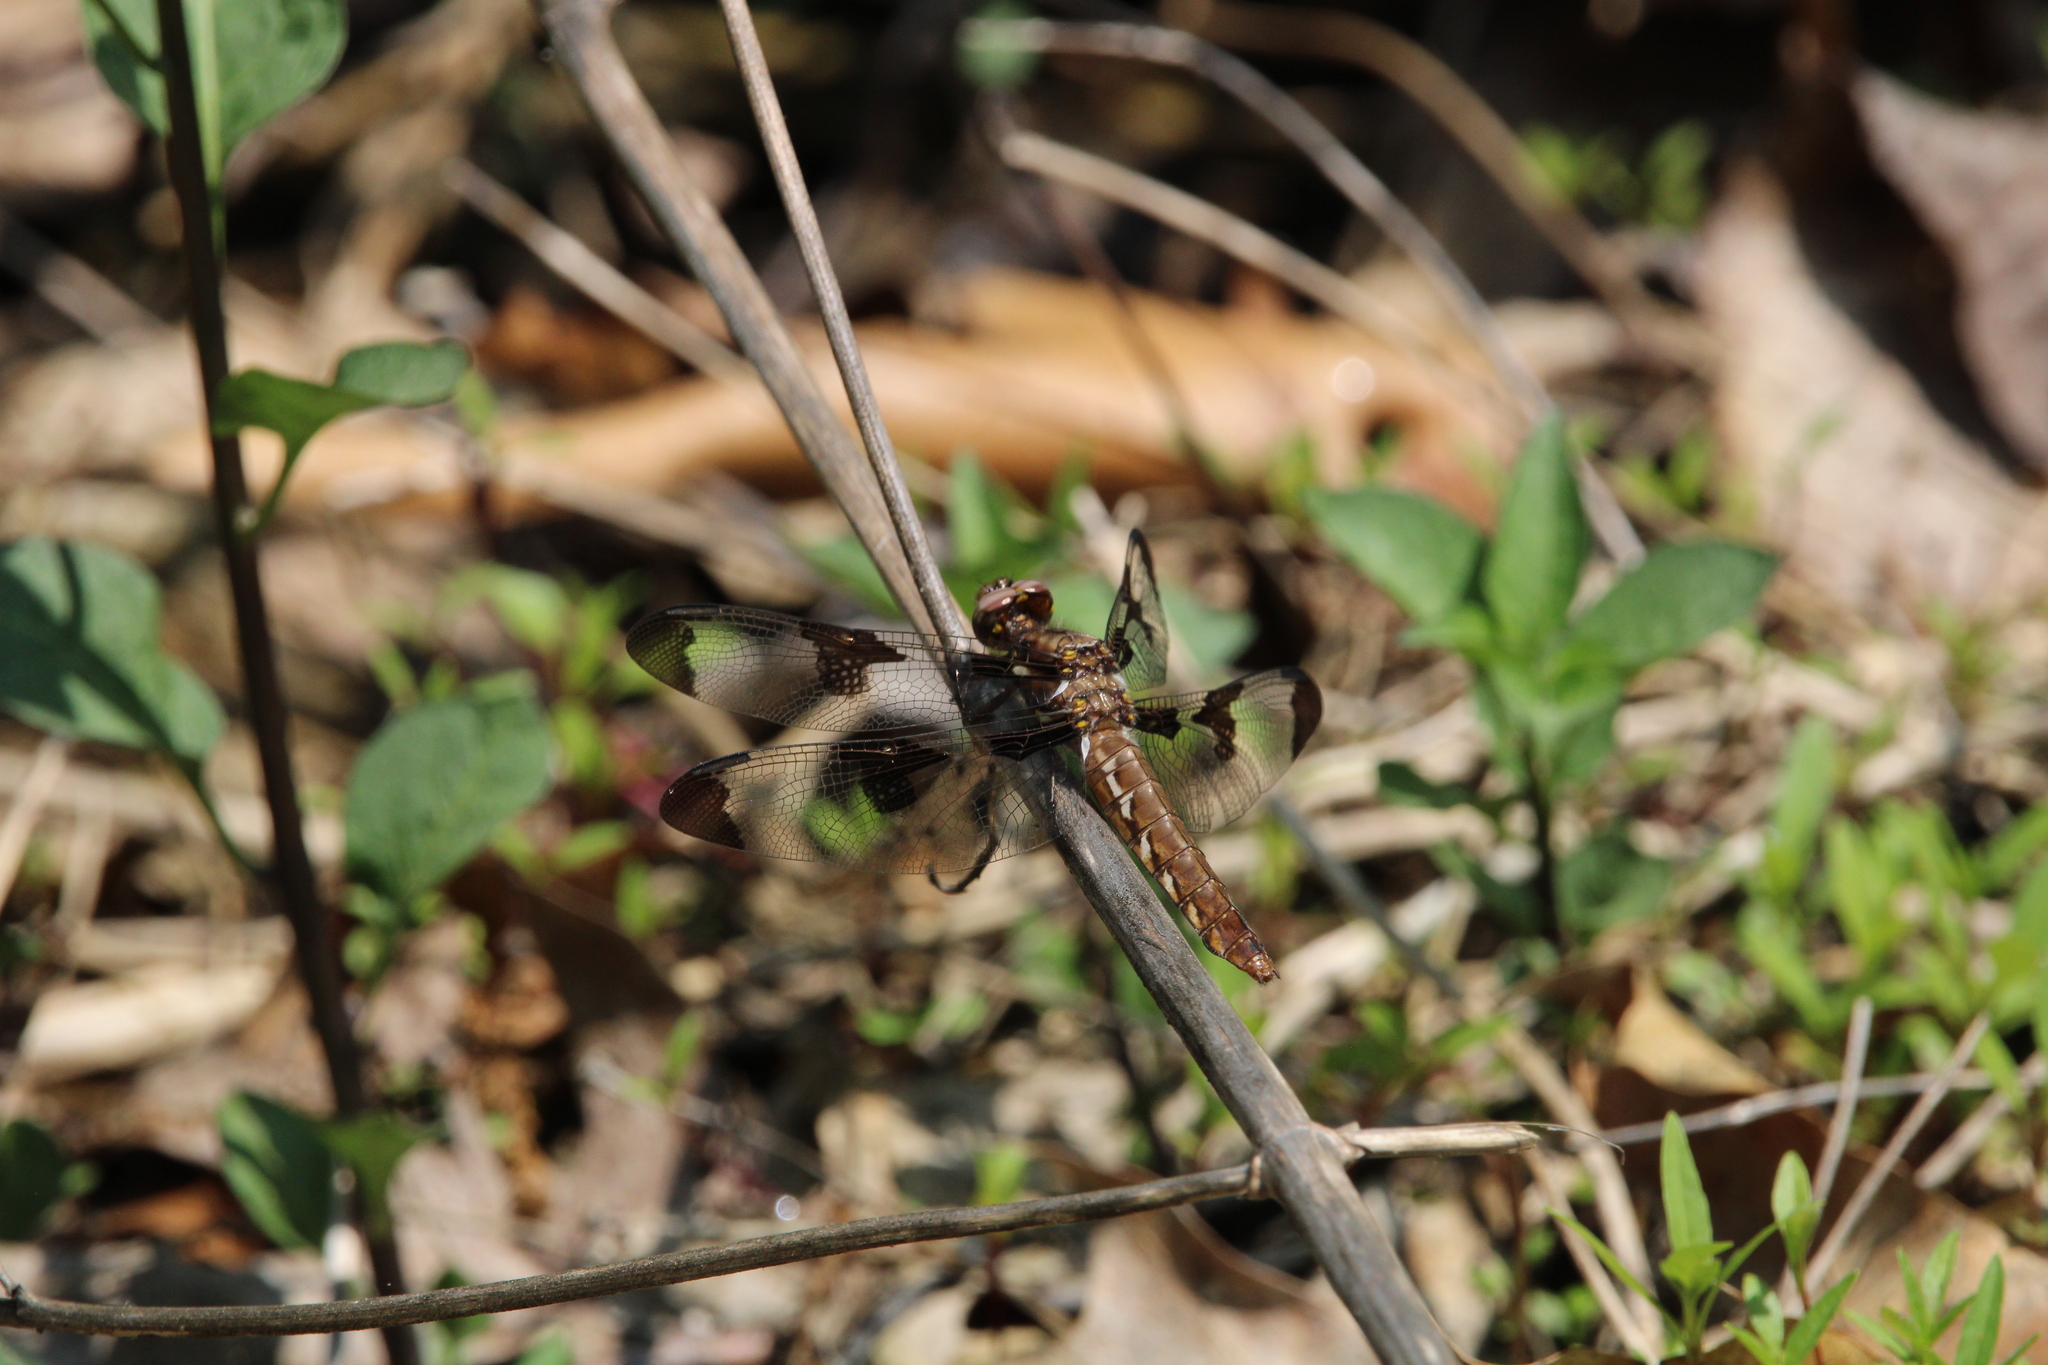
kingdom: Animalia
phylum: Arthropoda
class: Insecta
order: Odonata
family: Libellulidae
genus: Plathemis
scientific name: Plathemis lydia
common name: Common whitetail
